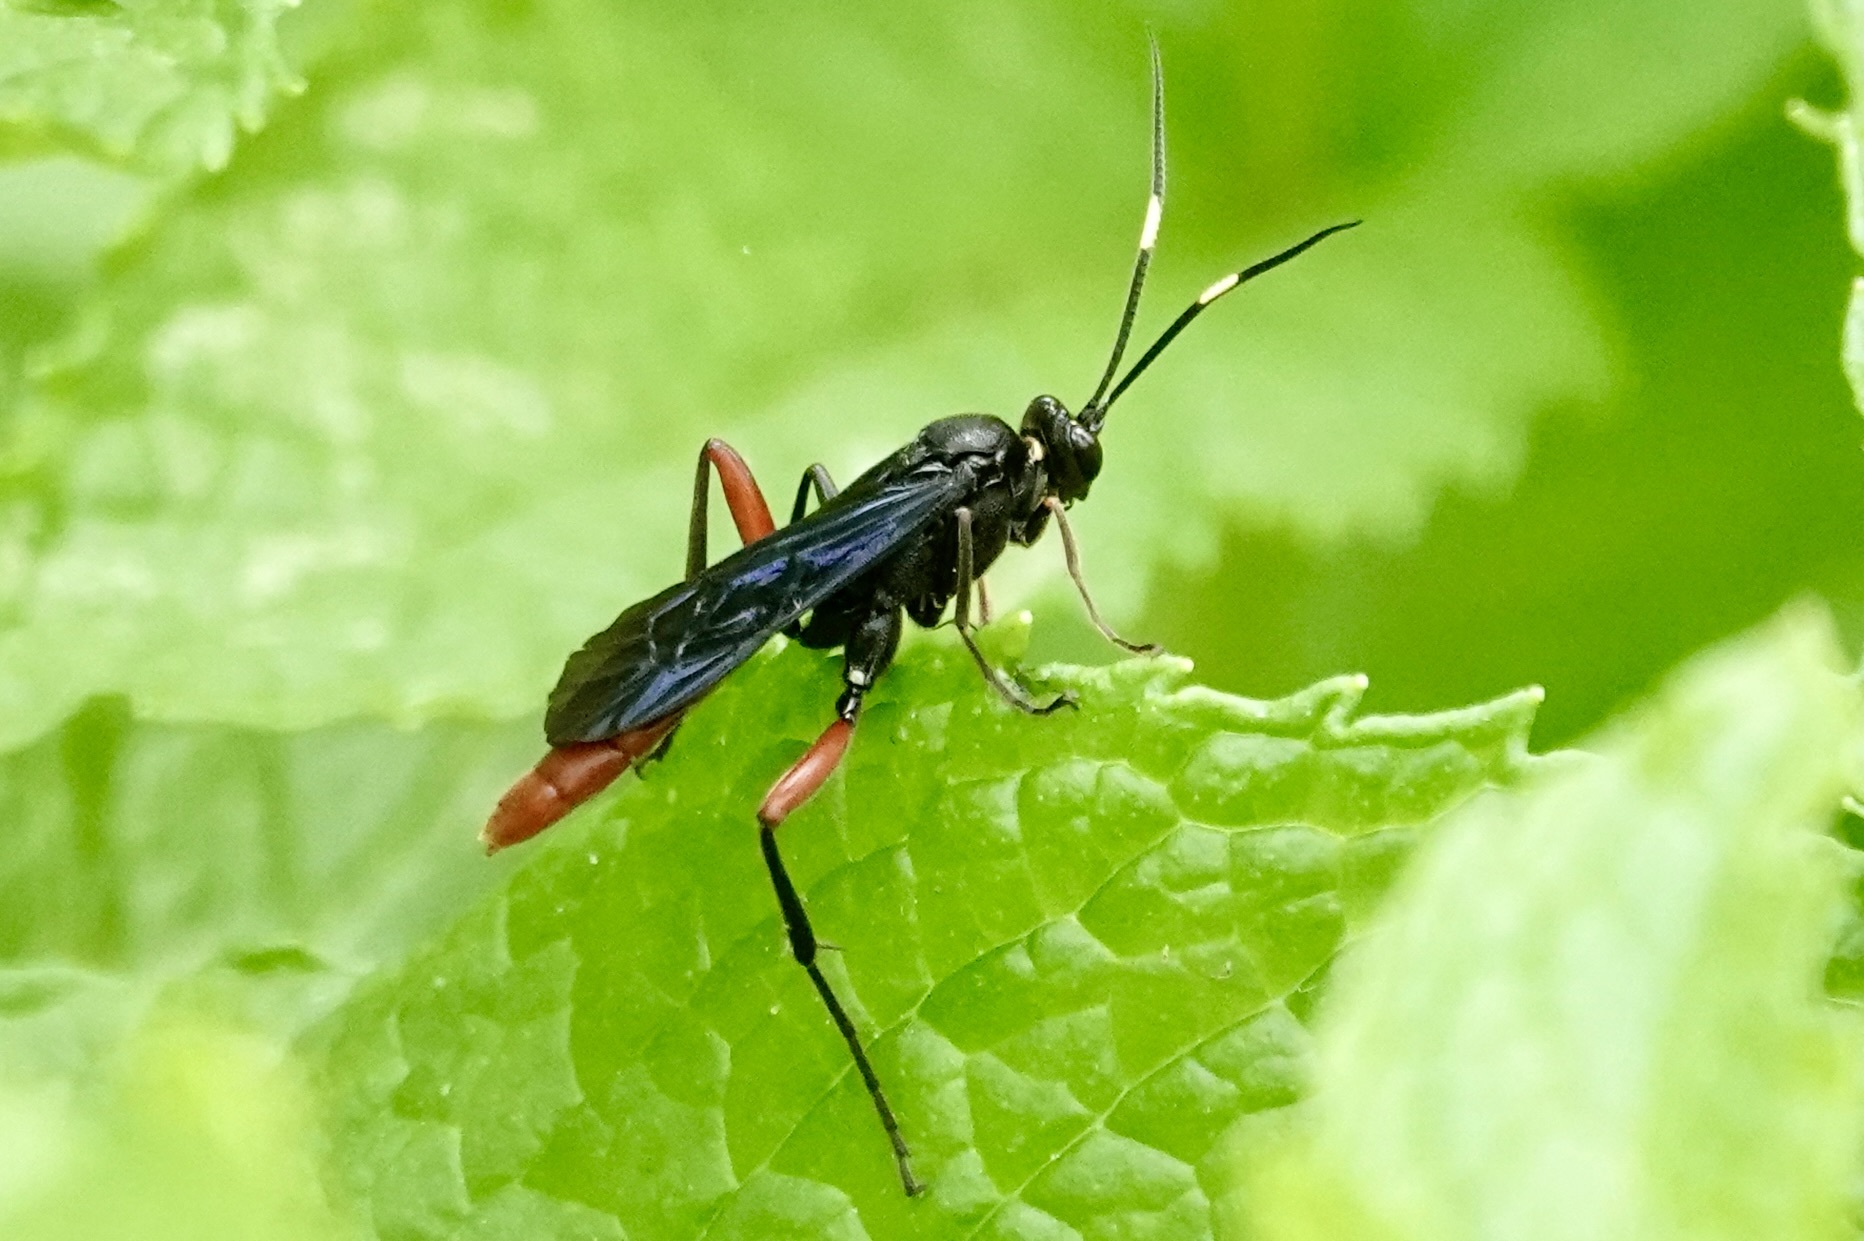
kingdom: Animalia
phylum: Arthropoda
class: Insecta
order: Hymenoptera
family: Ichneumonidae
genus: Limonethe
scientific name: Limonethe maurator
